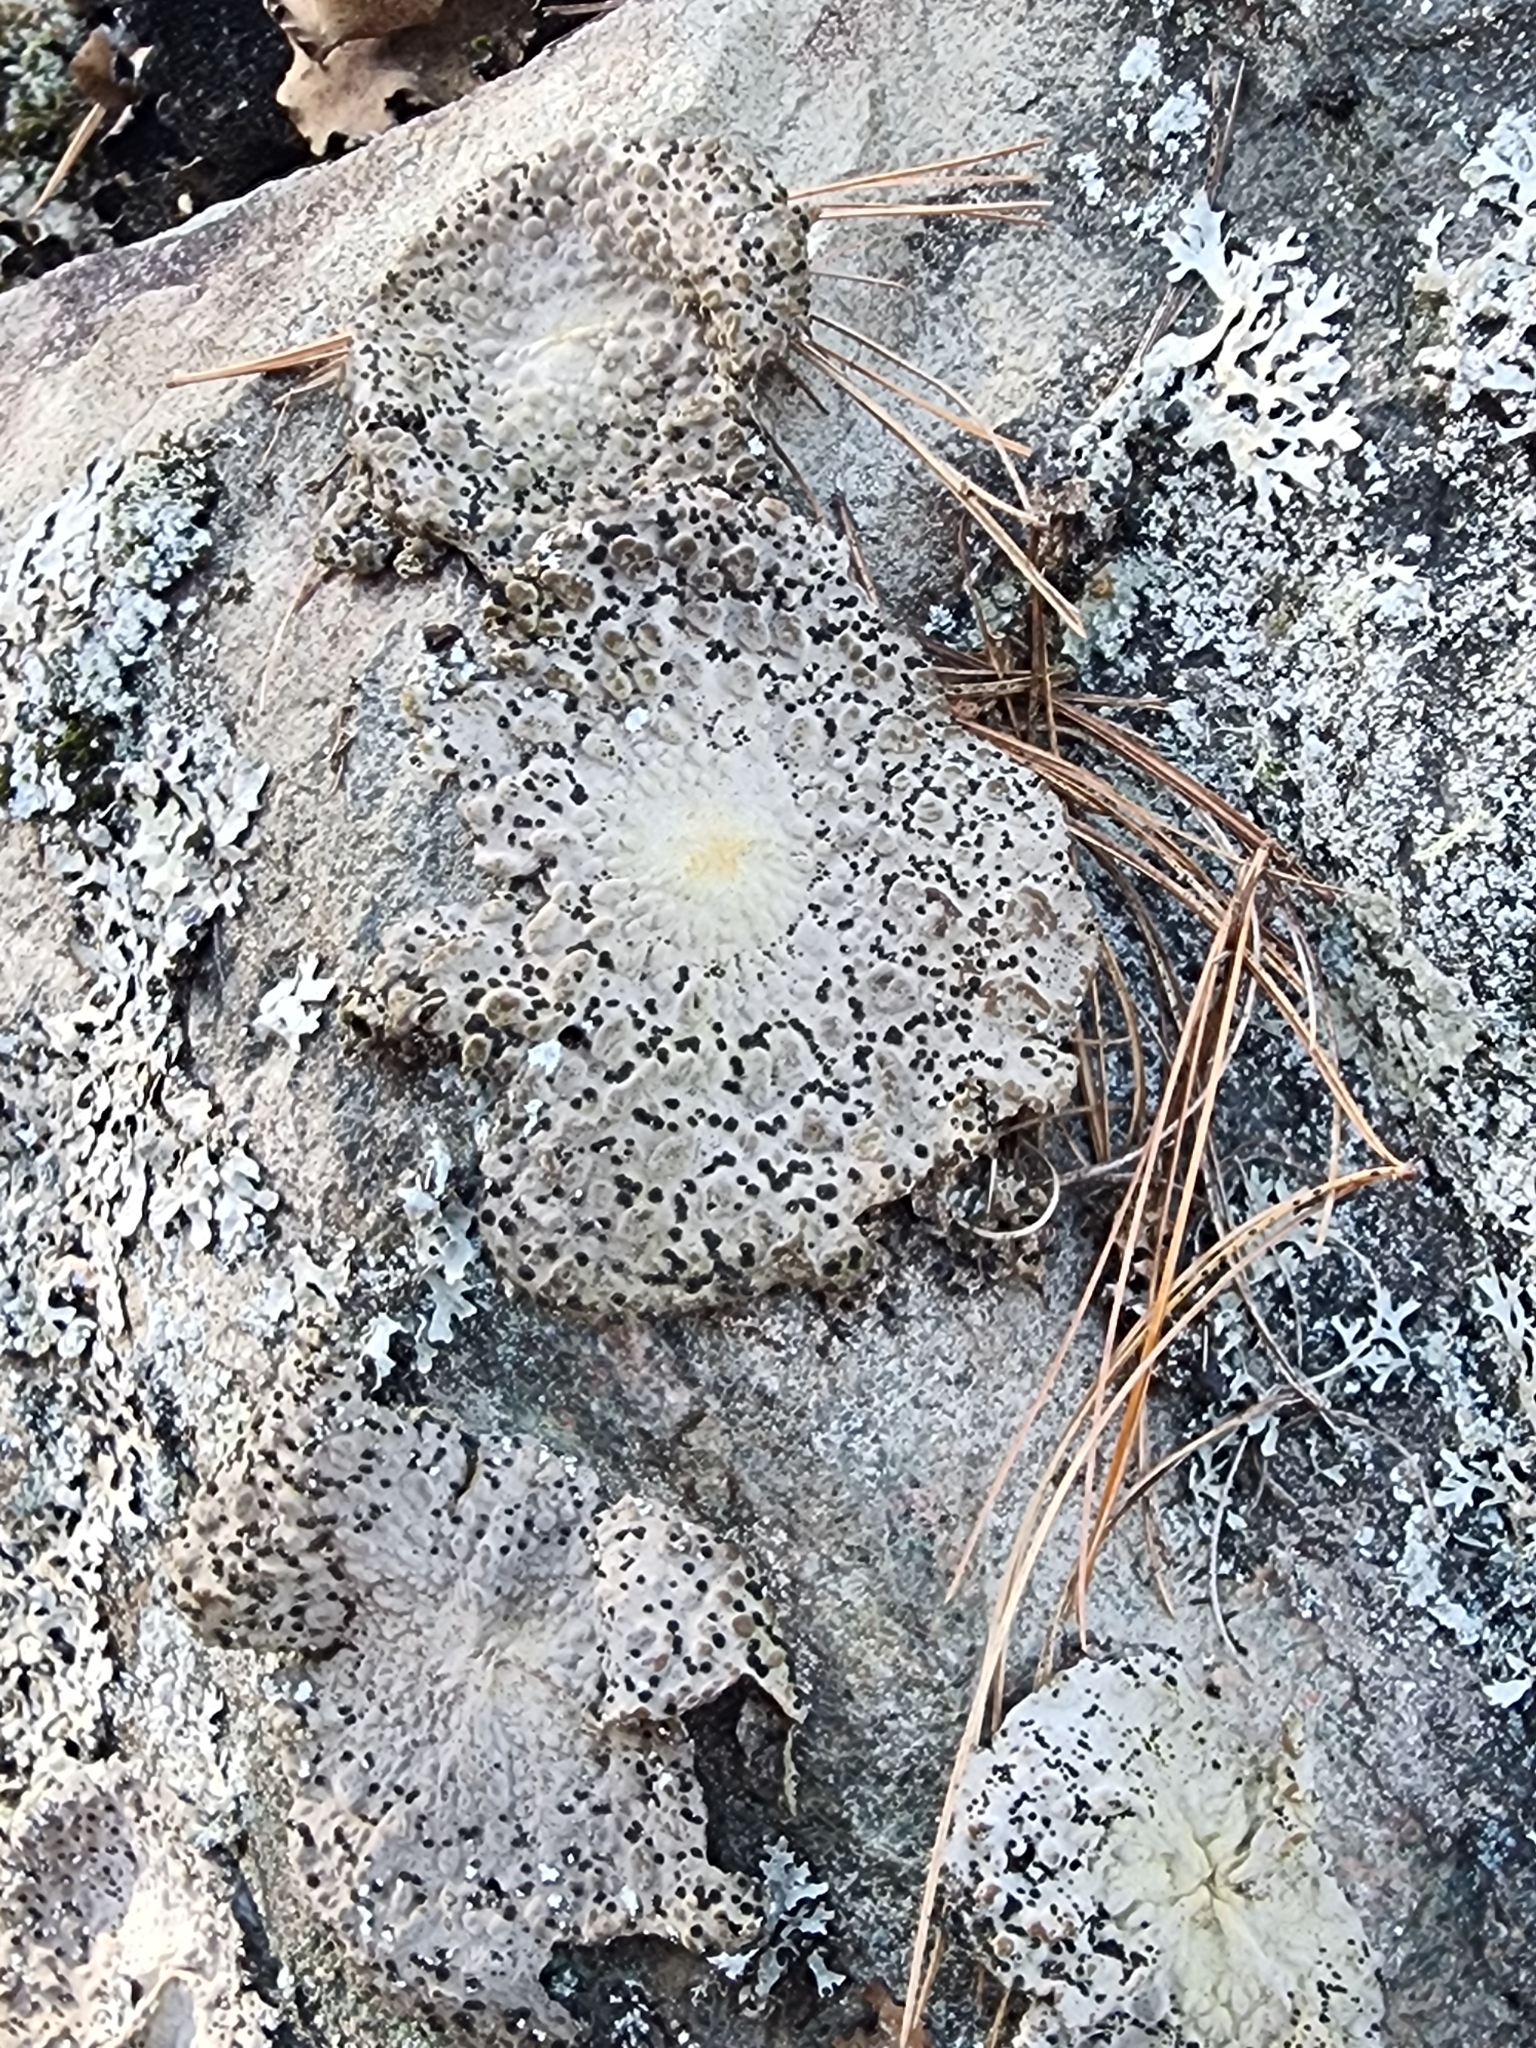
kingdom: Fungi
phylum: Ascomycota
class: Lecanoromycetes
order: Umbilicariales
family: Umbilicariaceae
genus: Lasallia
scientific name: Lasallia papulosa
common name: Common toadskin lichen
